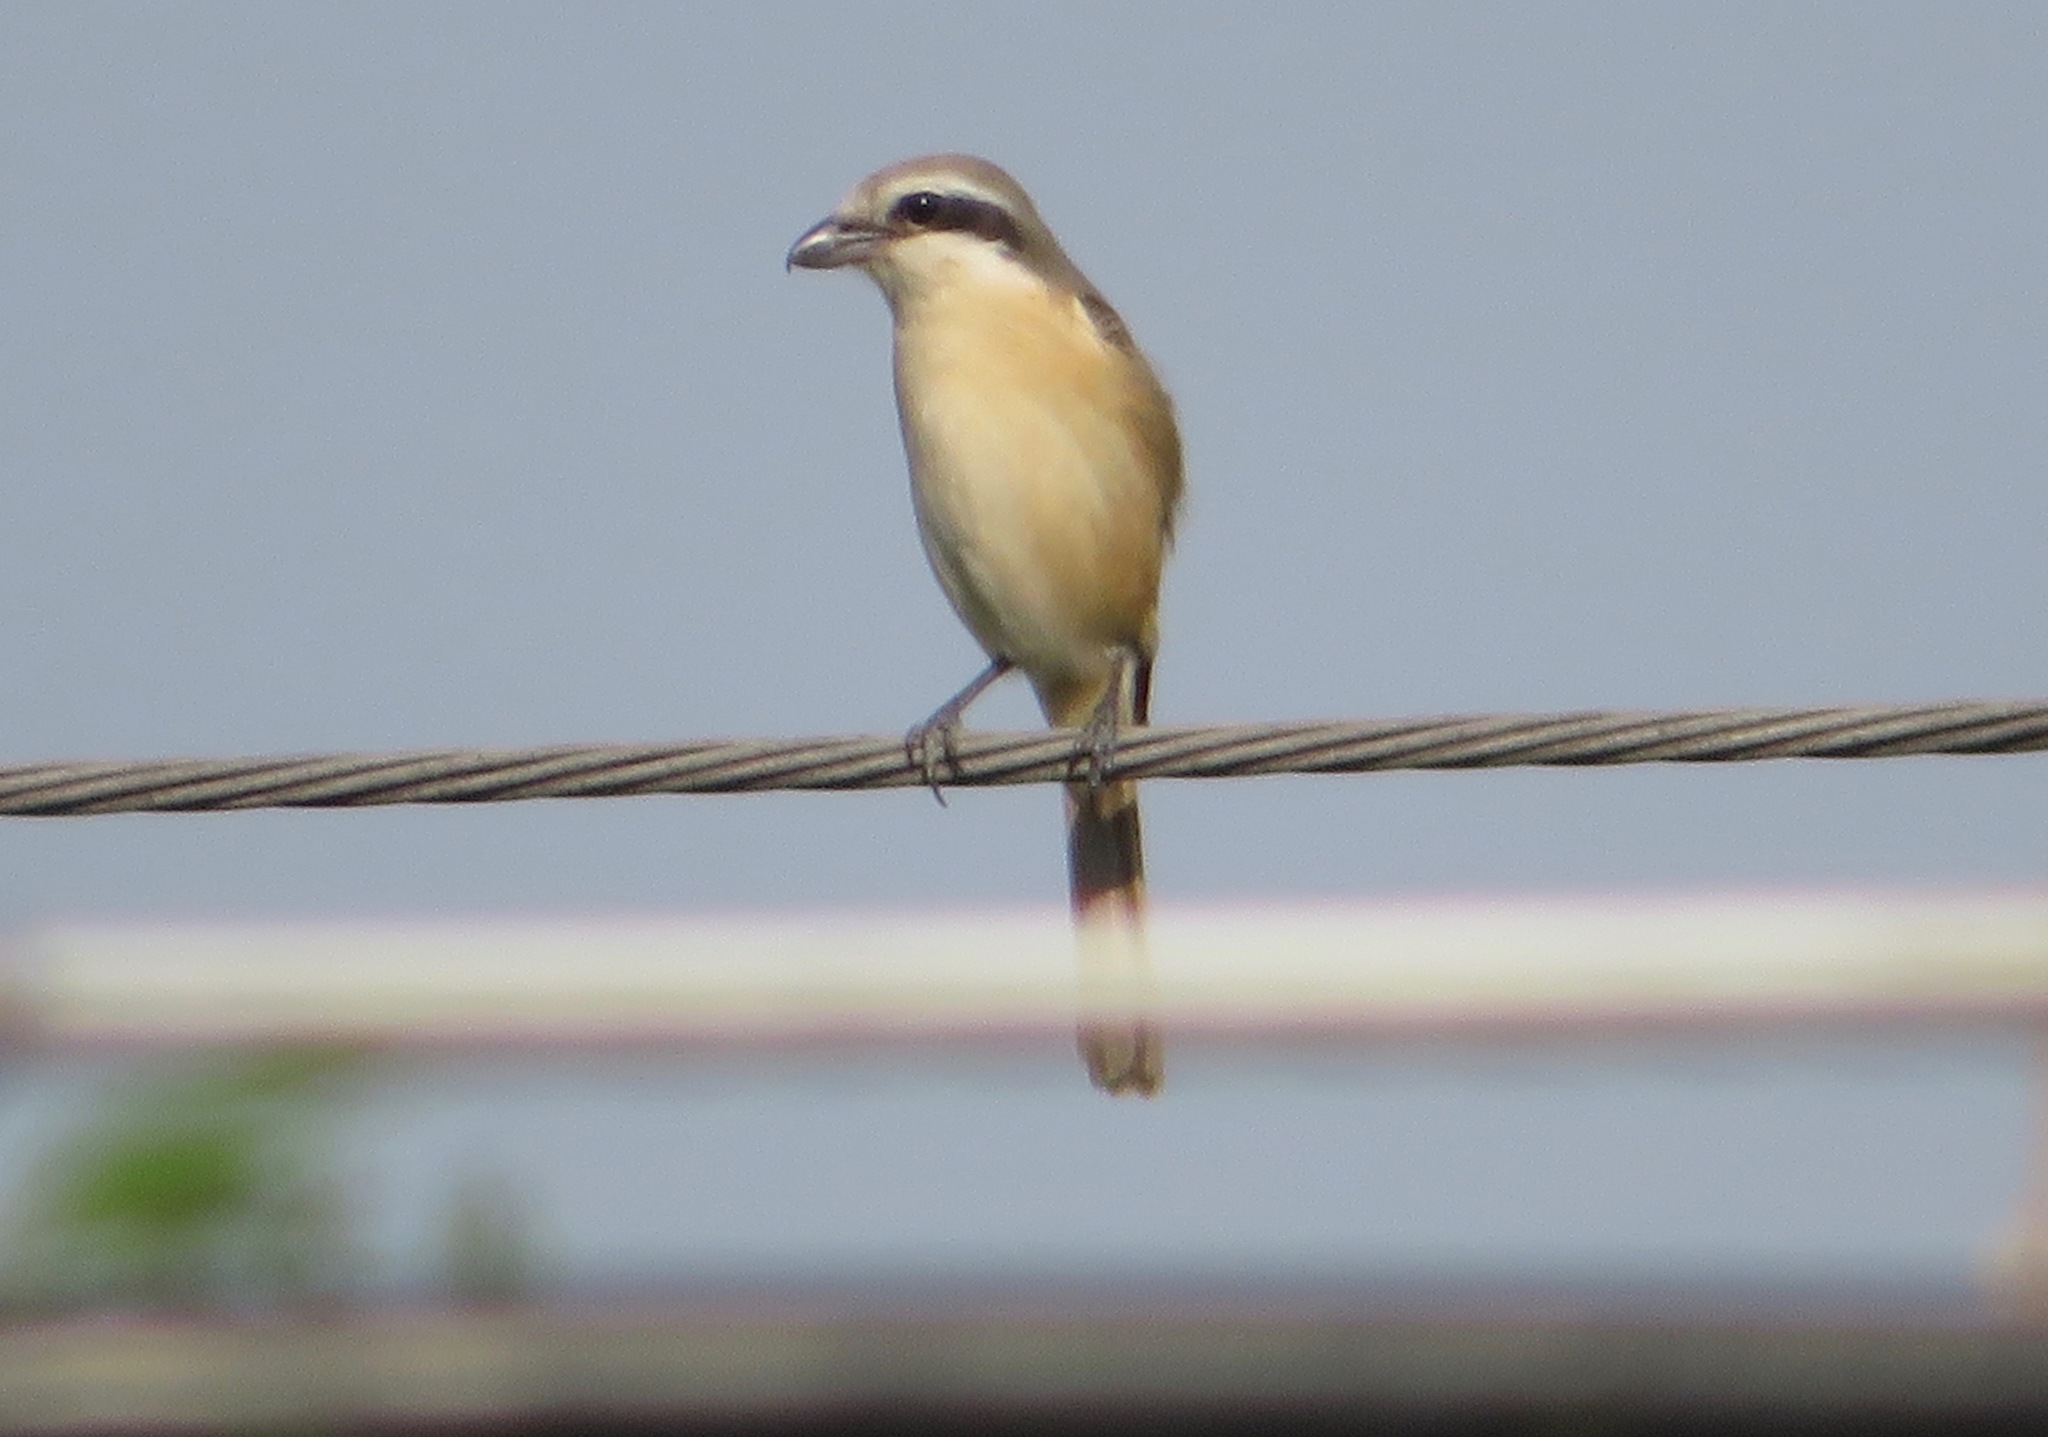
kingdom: Animalia
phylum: Chordata
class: Aves
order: Passeriformes
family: Laniidae
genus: Lanius
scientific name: Lanius cristatus
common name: Brown shrike
